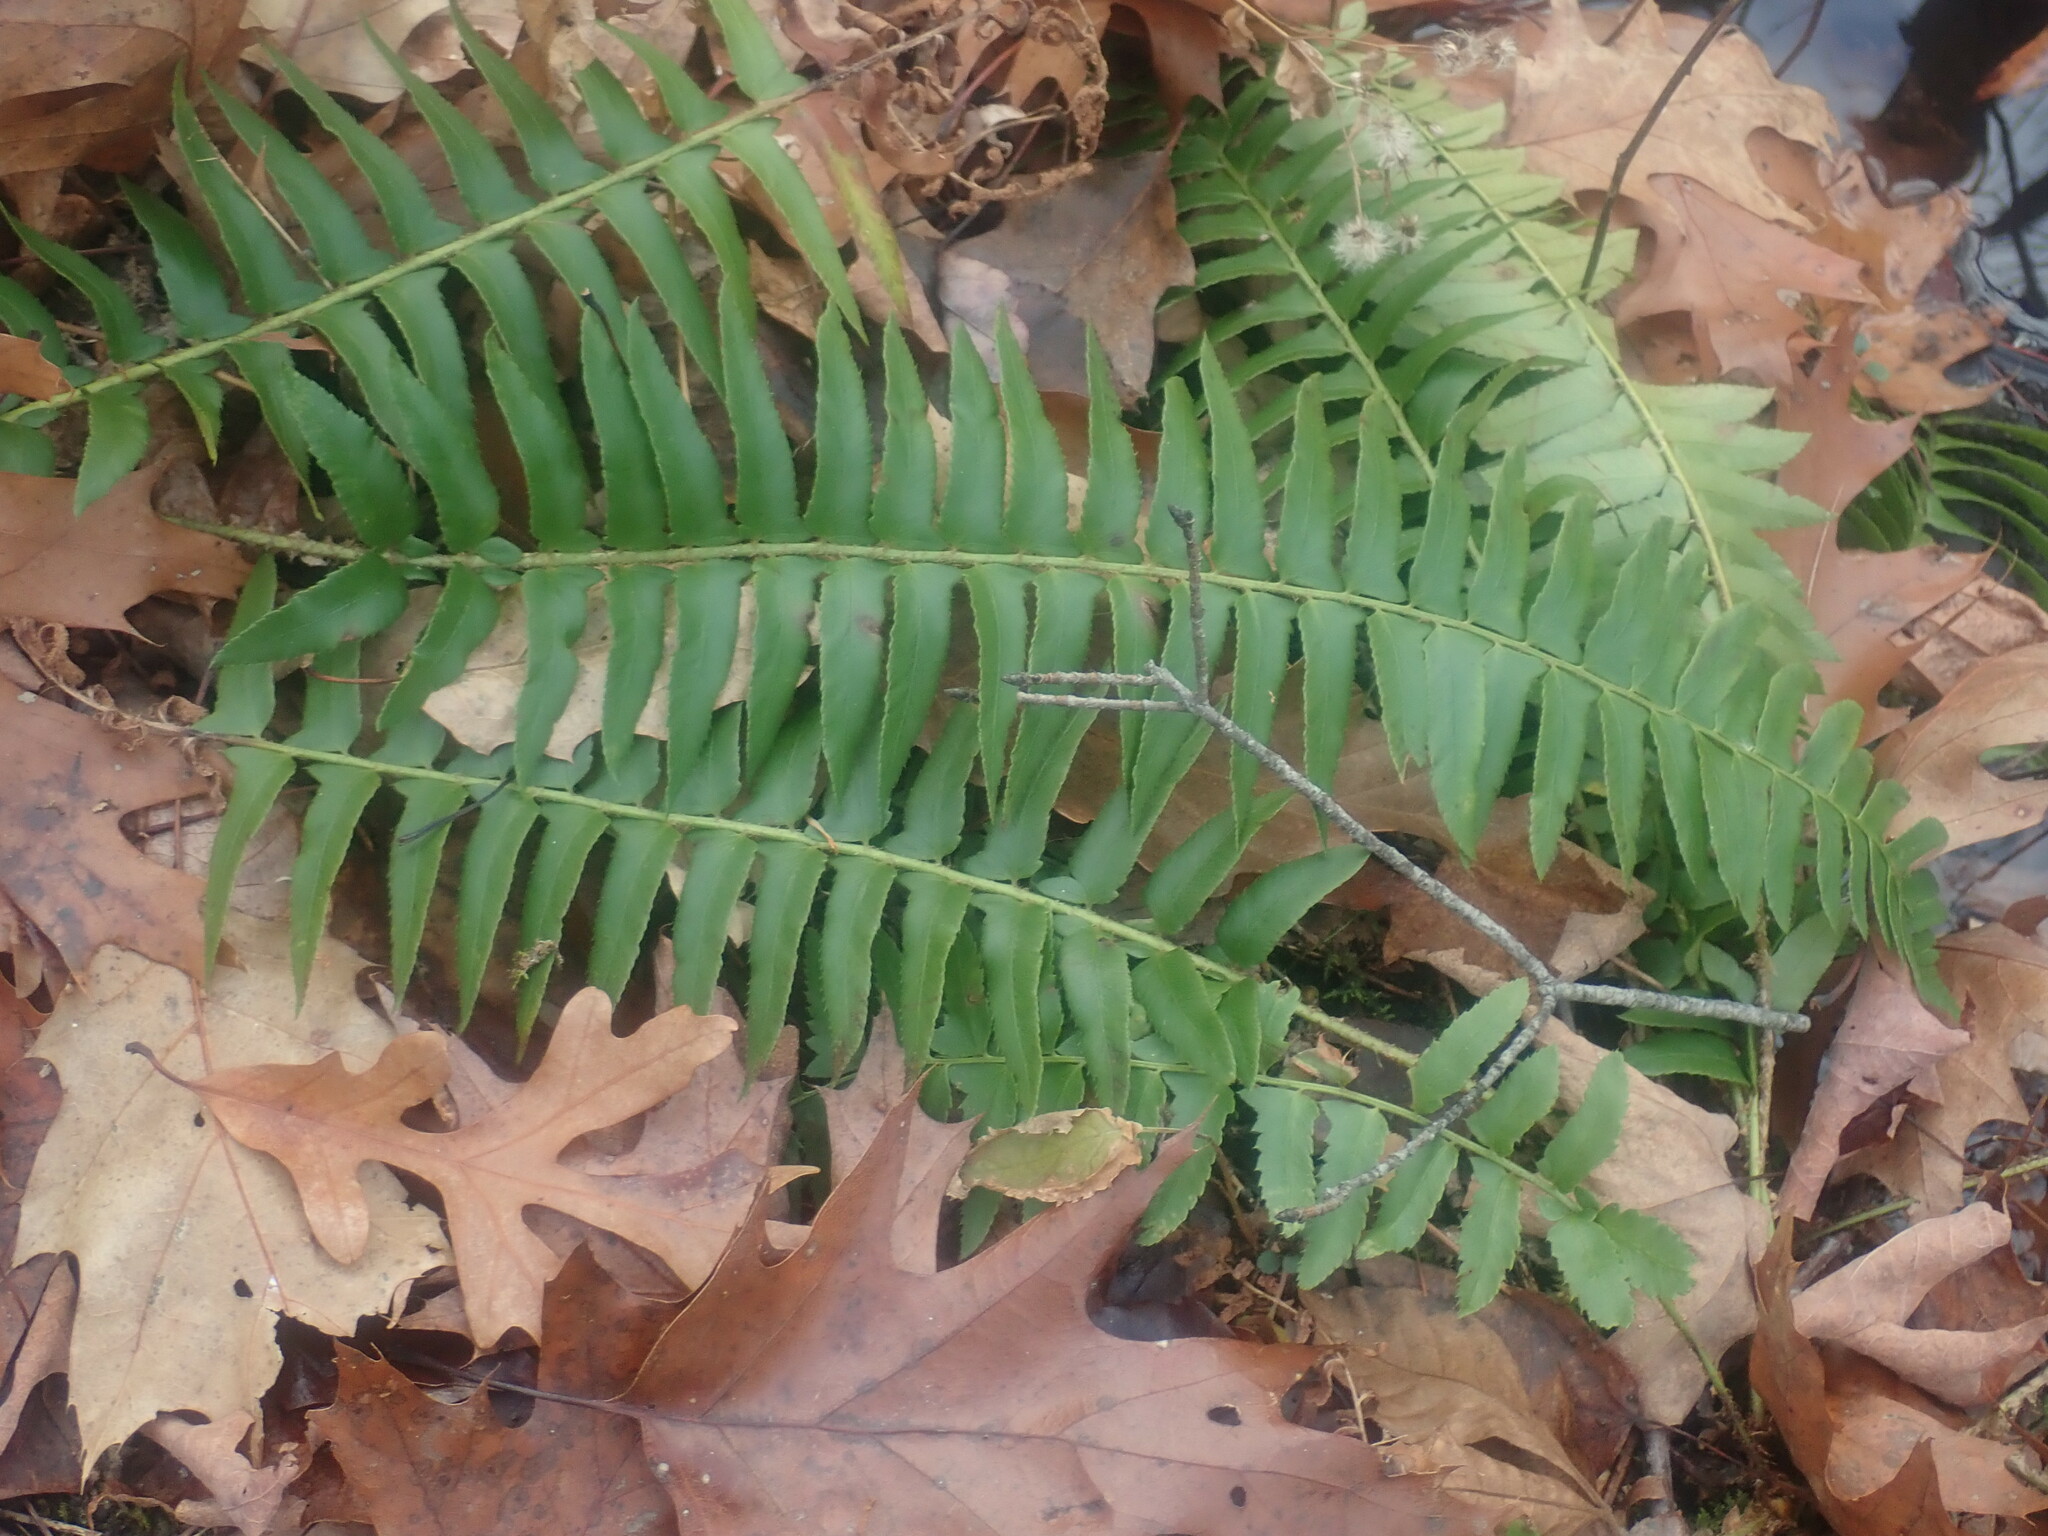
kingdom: Plantae
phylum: Tracheophyta
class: Polypodiopsida
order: Polypodiales
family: Dryopteridaceae
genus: Polystichum
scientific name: Polystichum acrostichoides
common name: Christmas fern
